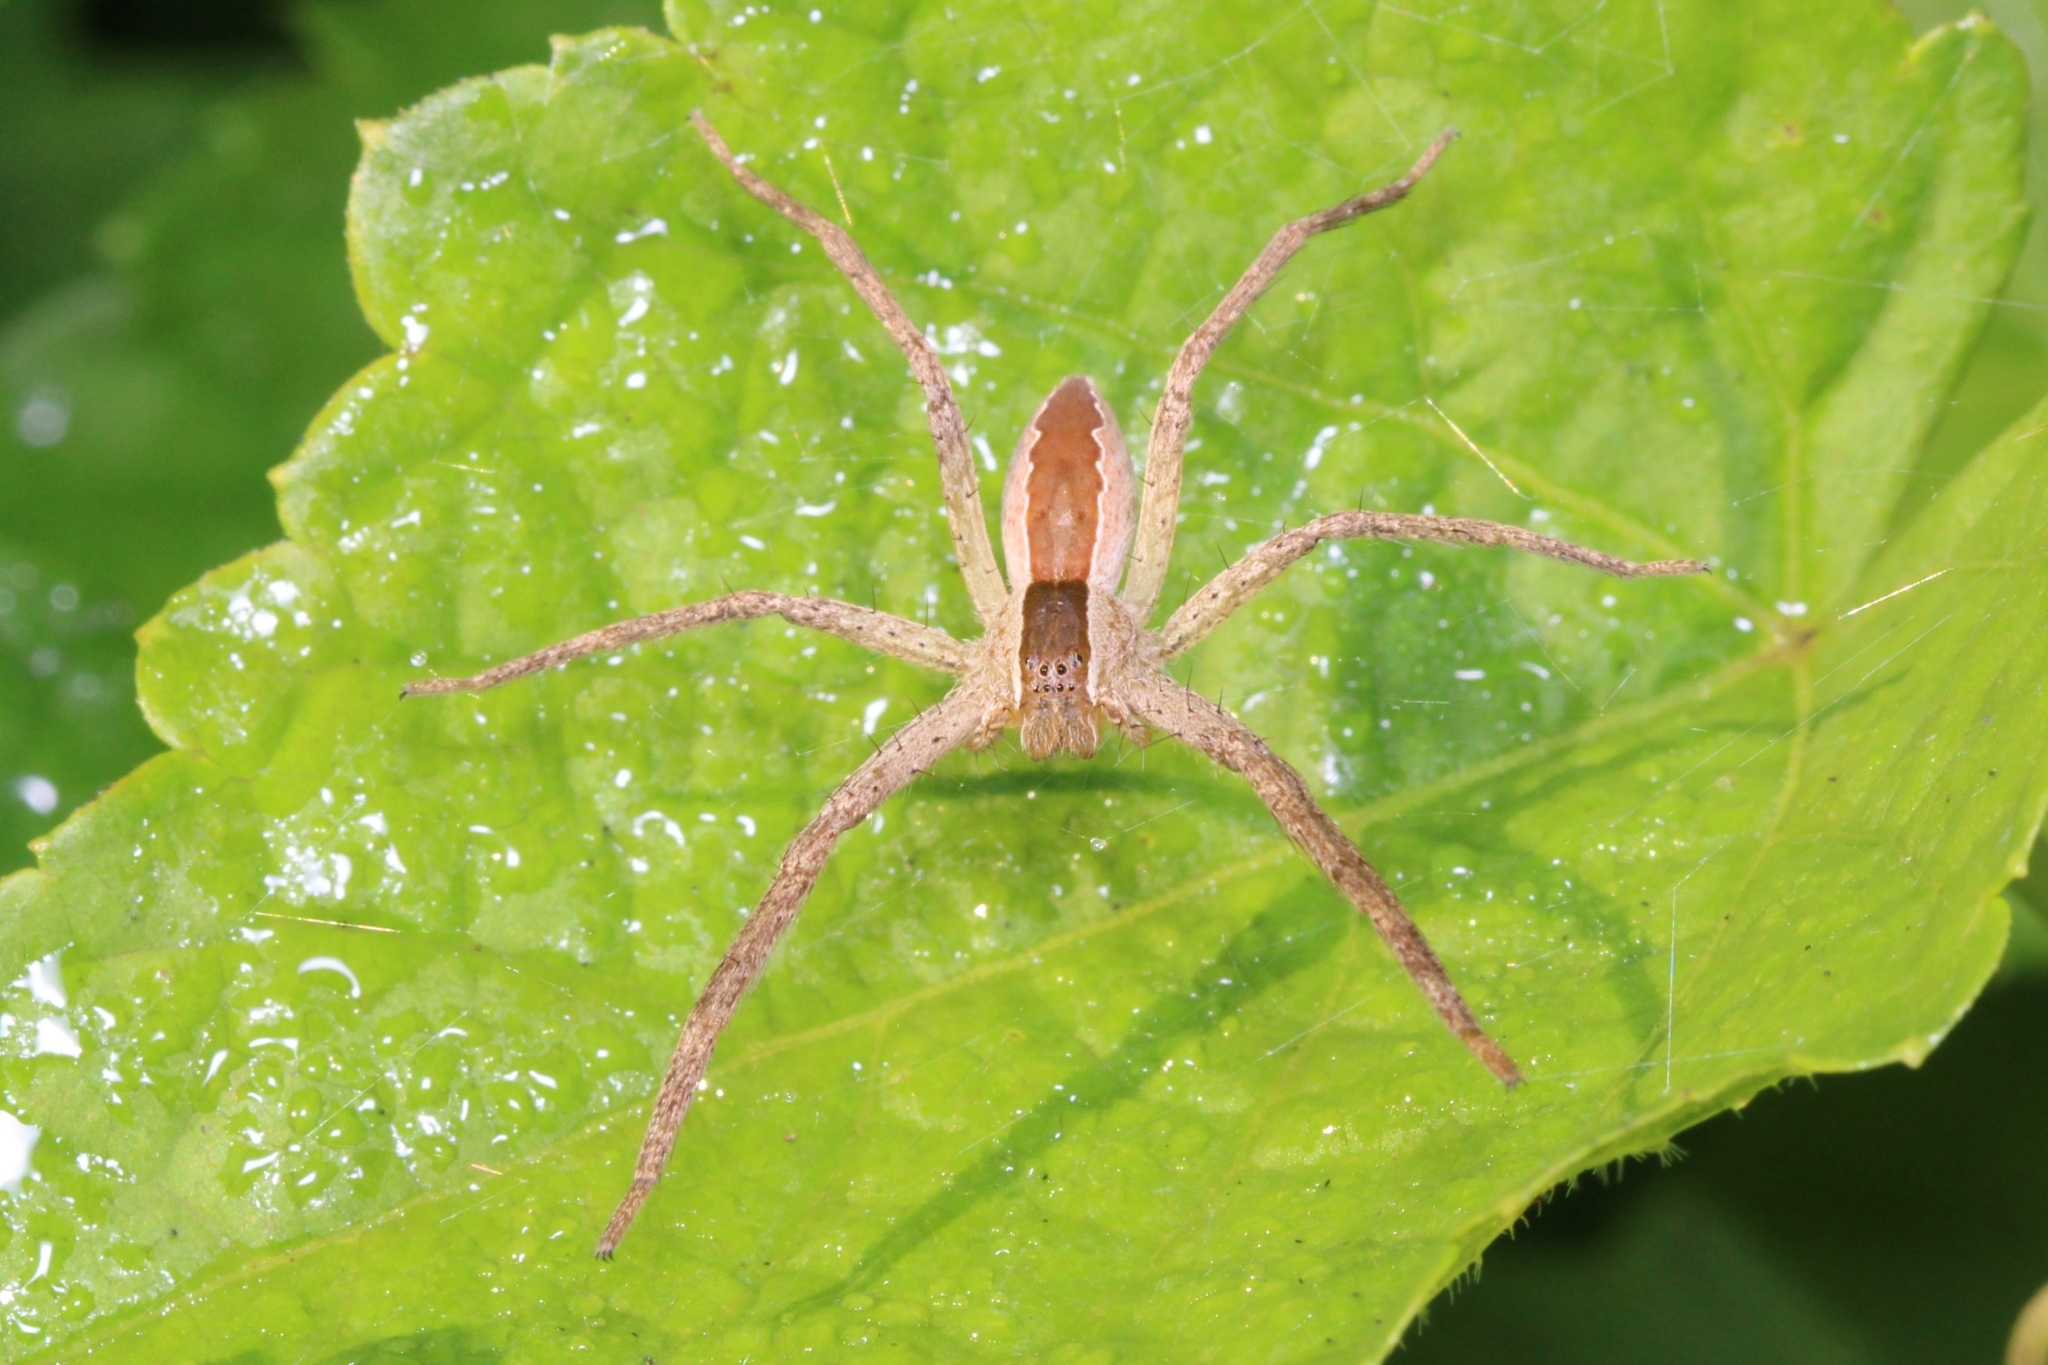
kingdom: Animalia
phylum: Arthropoda
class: Arachnida
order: Araneae
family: Pisauridae
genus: Pisaurina
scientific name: Pisaurina mira
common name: American nursery web spider
